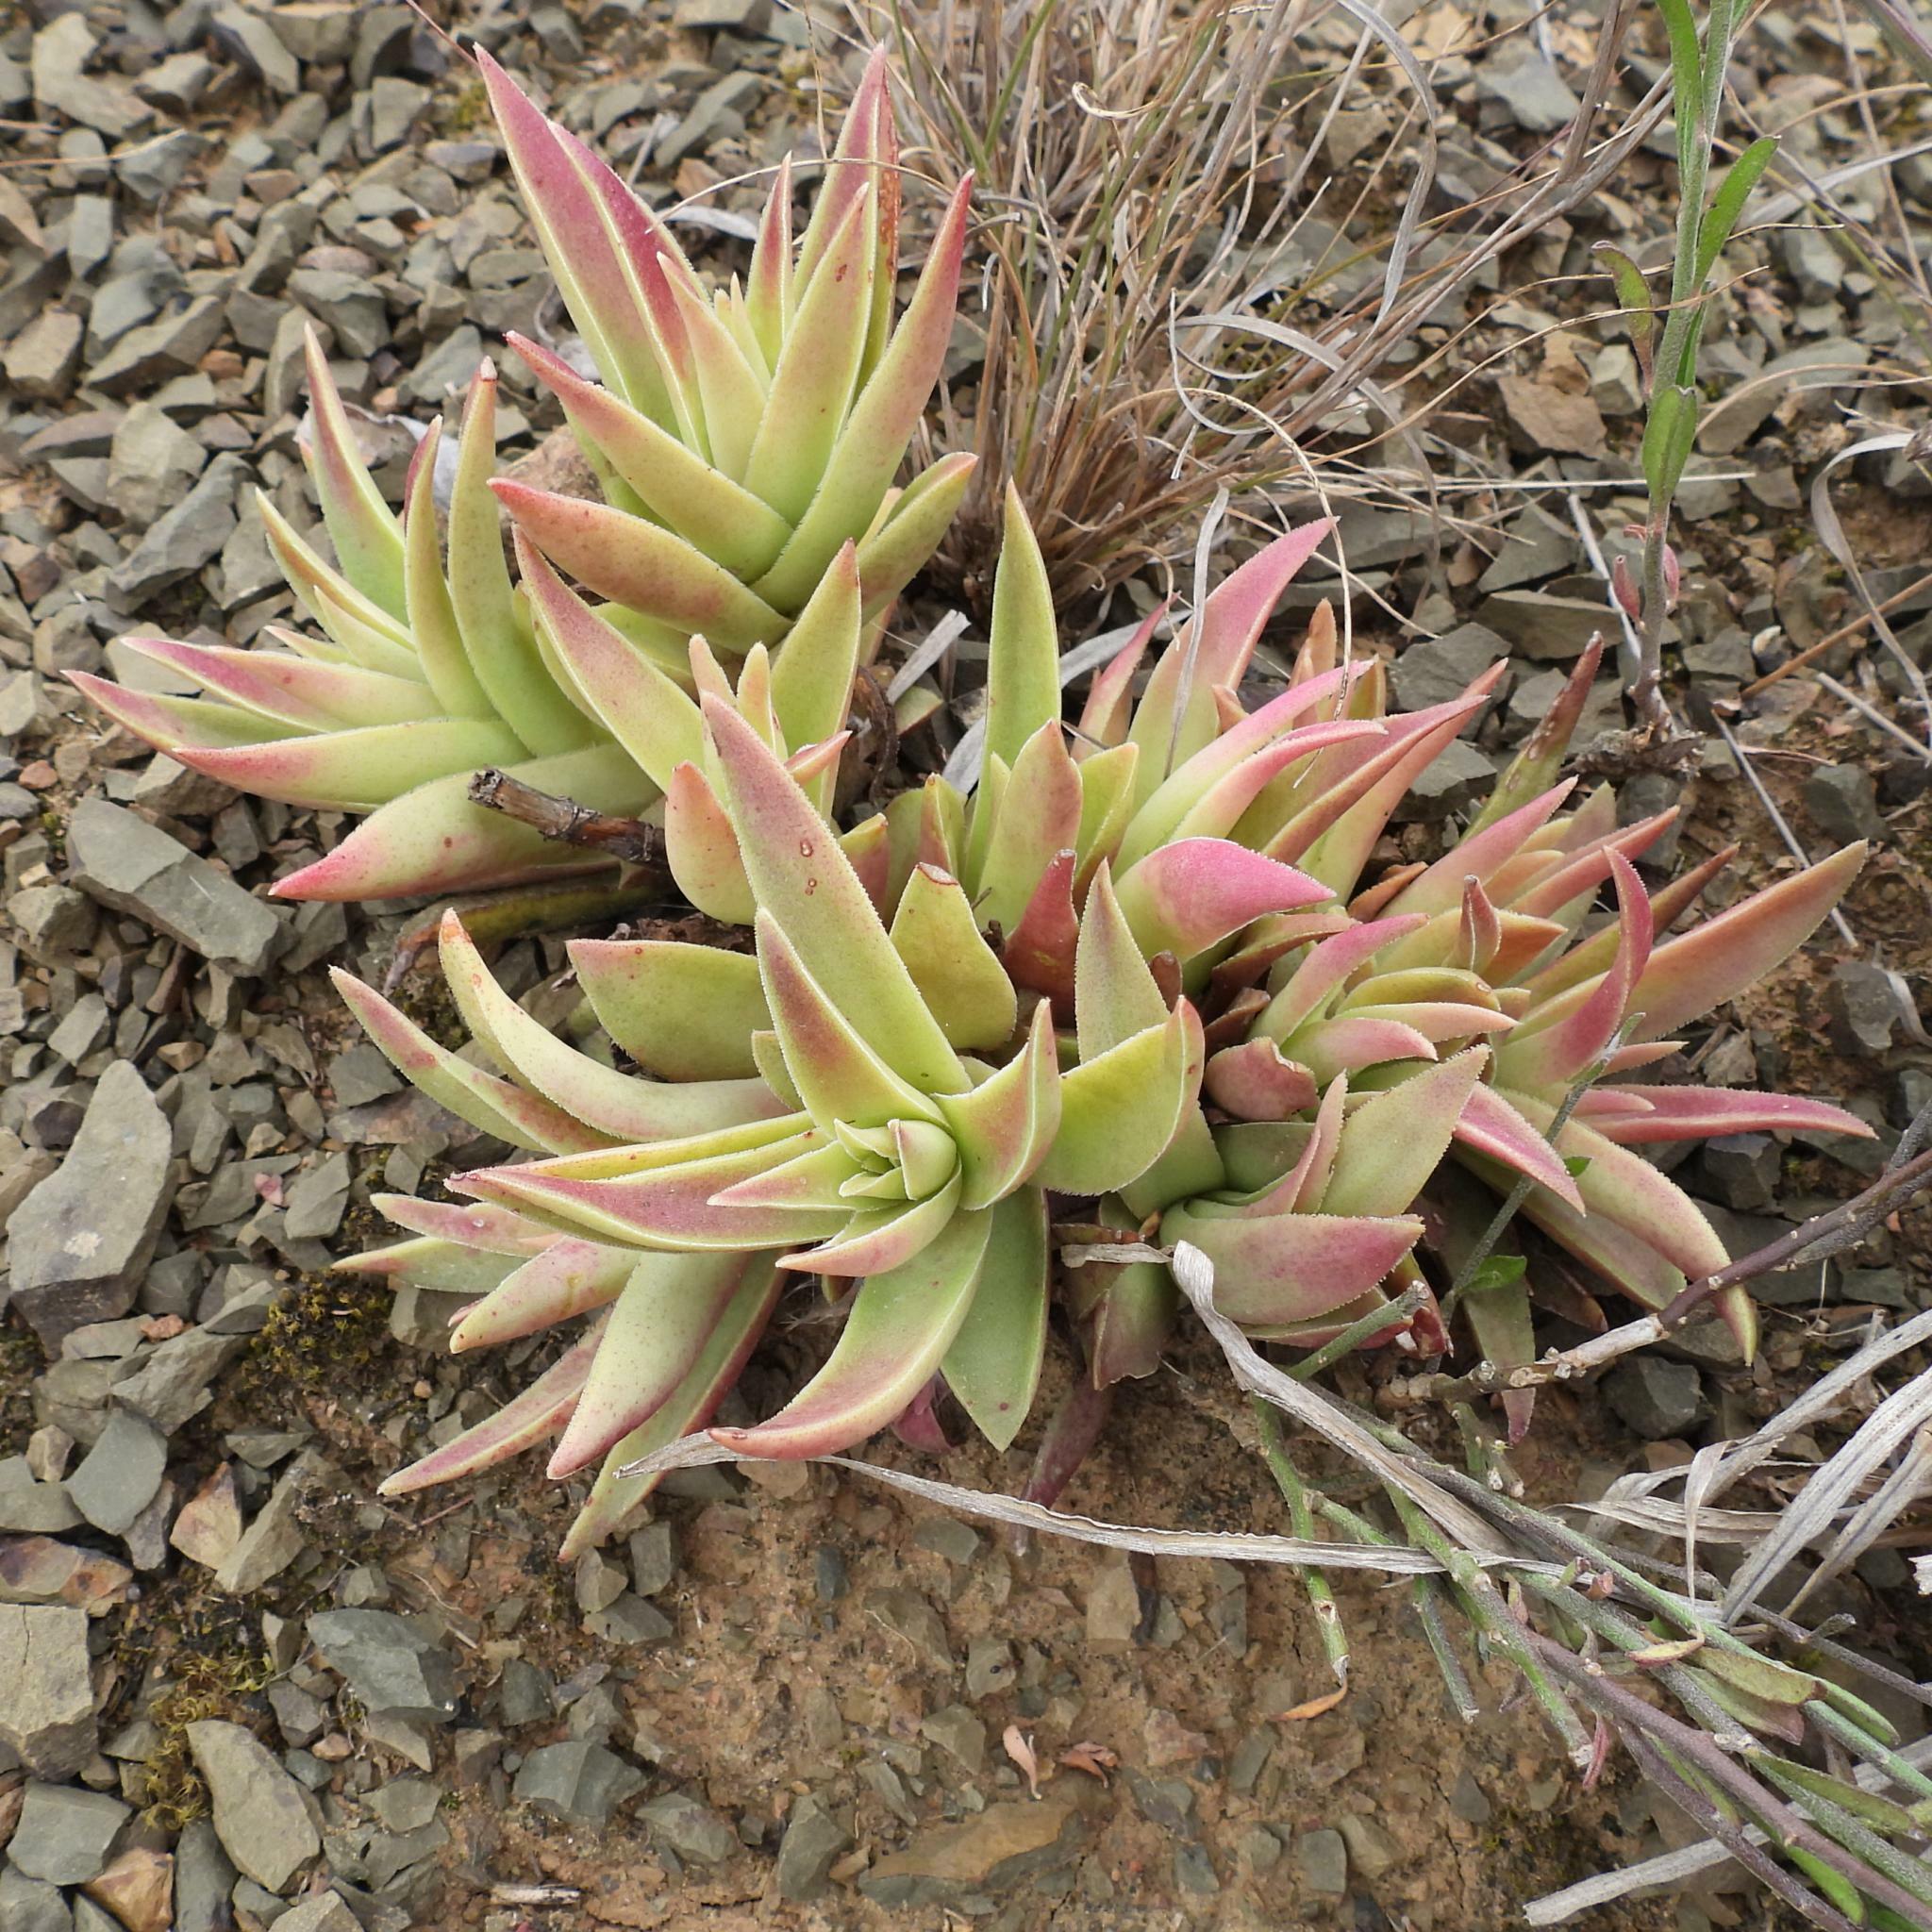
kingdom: Plantae
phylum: Tracheophyta
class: Magnoliopsida
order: Saxifragales
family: Crassulaceae
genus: Crassula
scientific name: Crassula capitella
